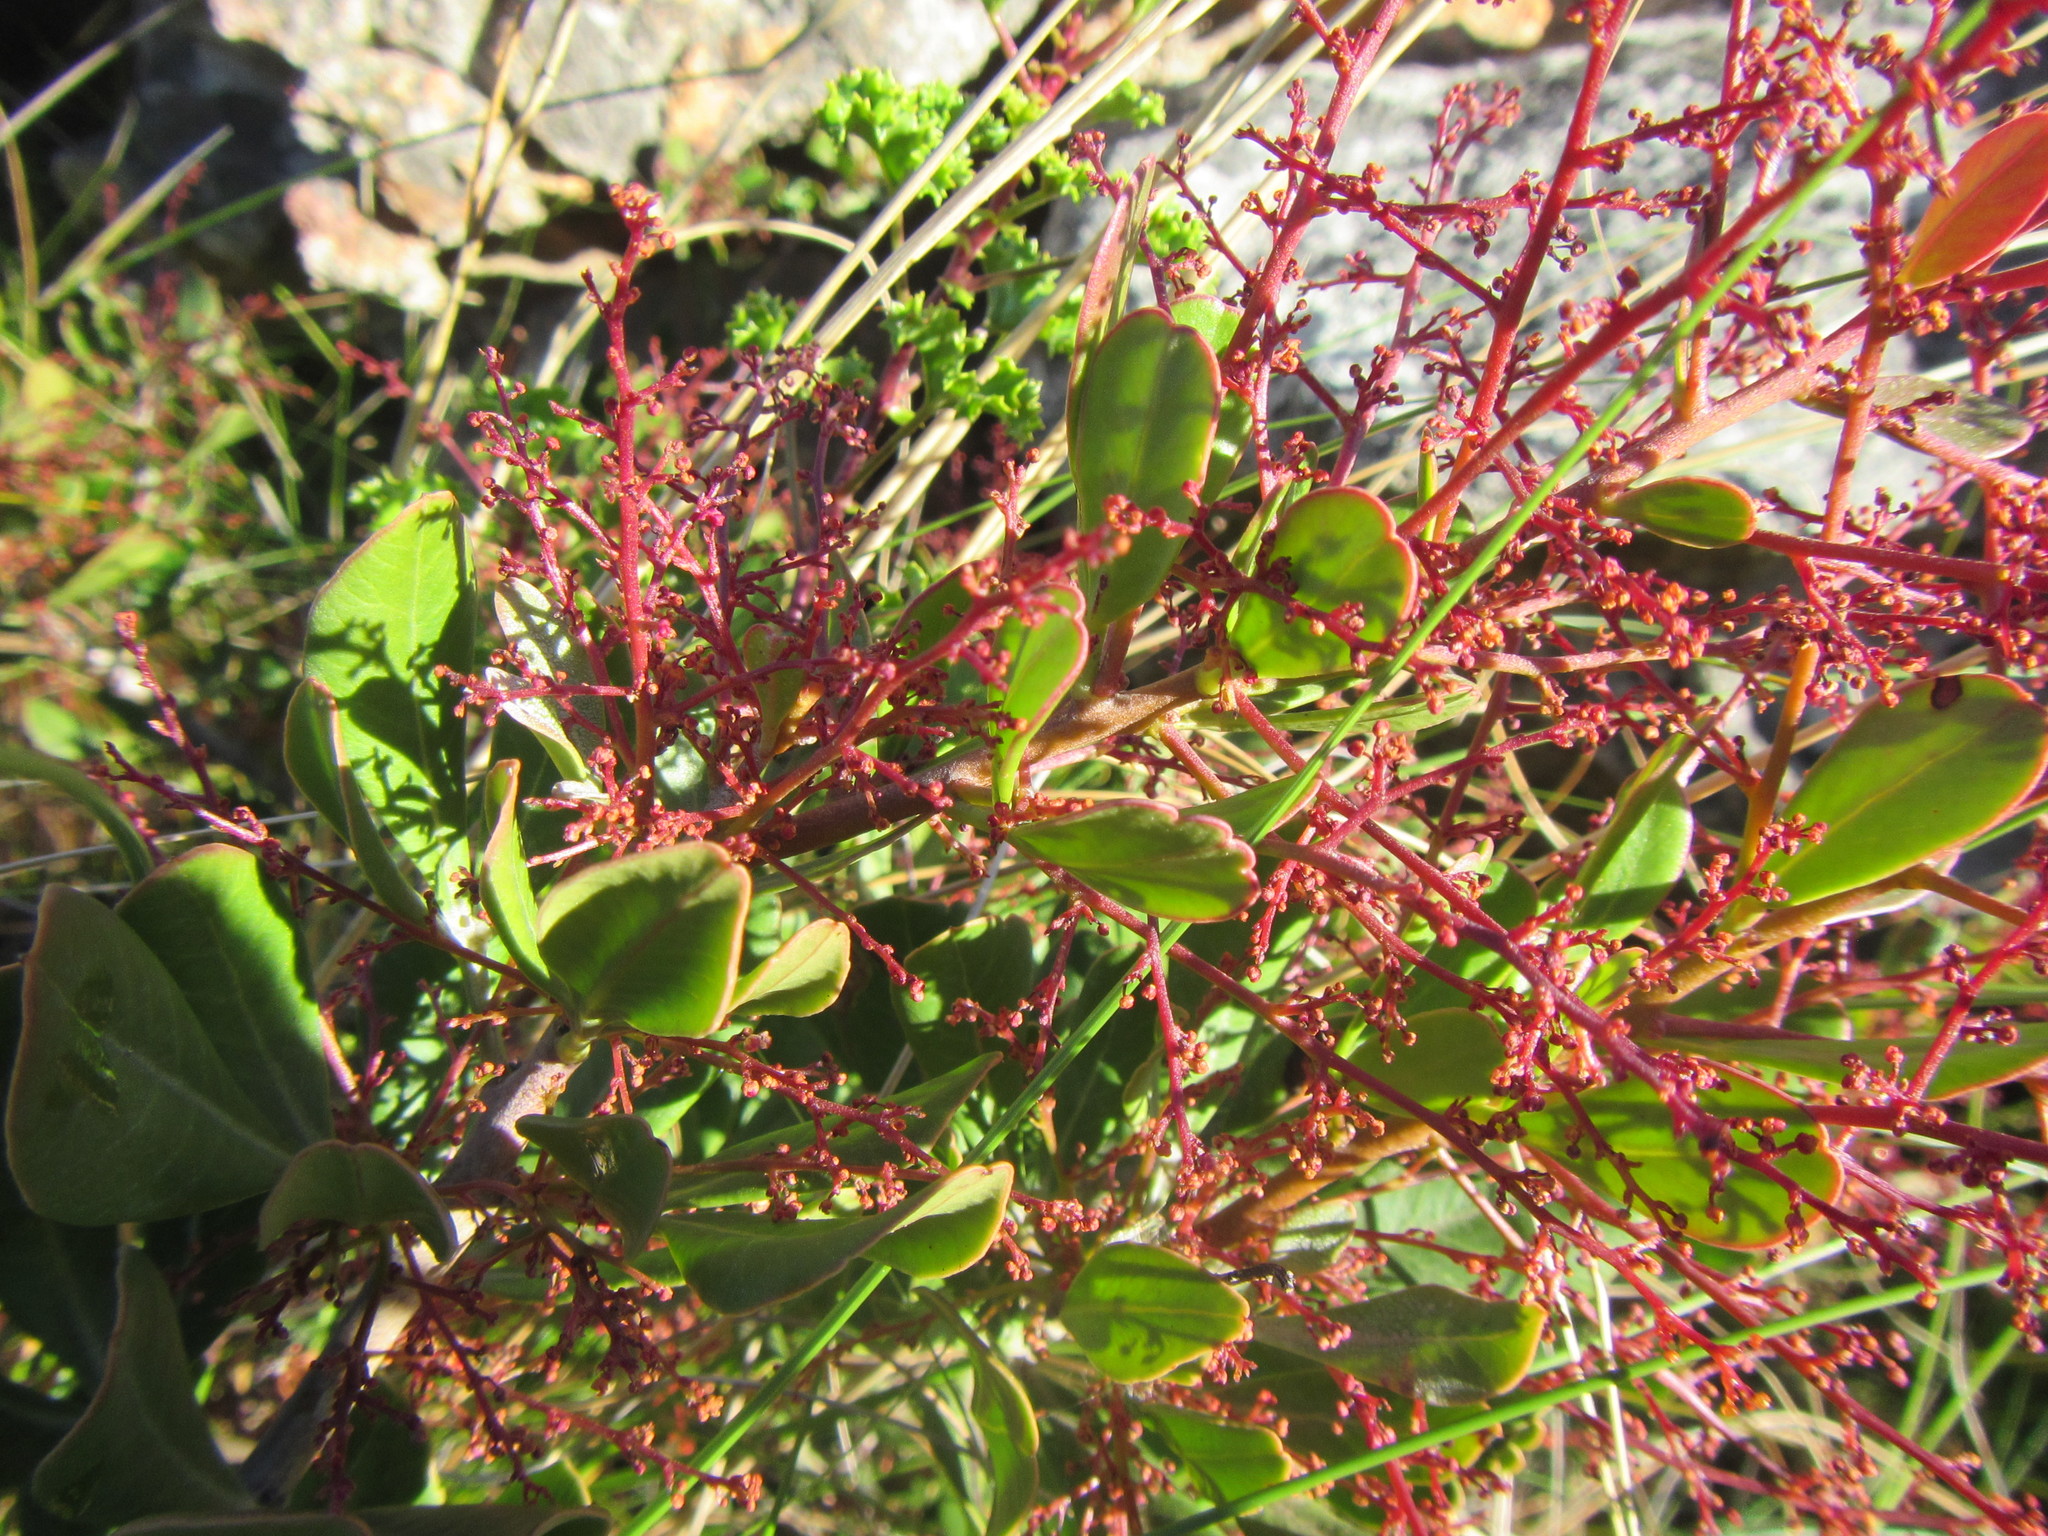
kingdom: Plantae
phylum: Tracheophyta
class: Magnoliopsida
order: Sapindales
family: Anacardiaceae
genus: Searsia
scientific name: Searsia scytophylla
